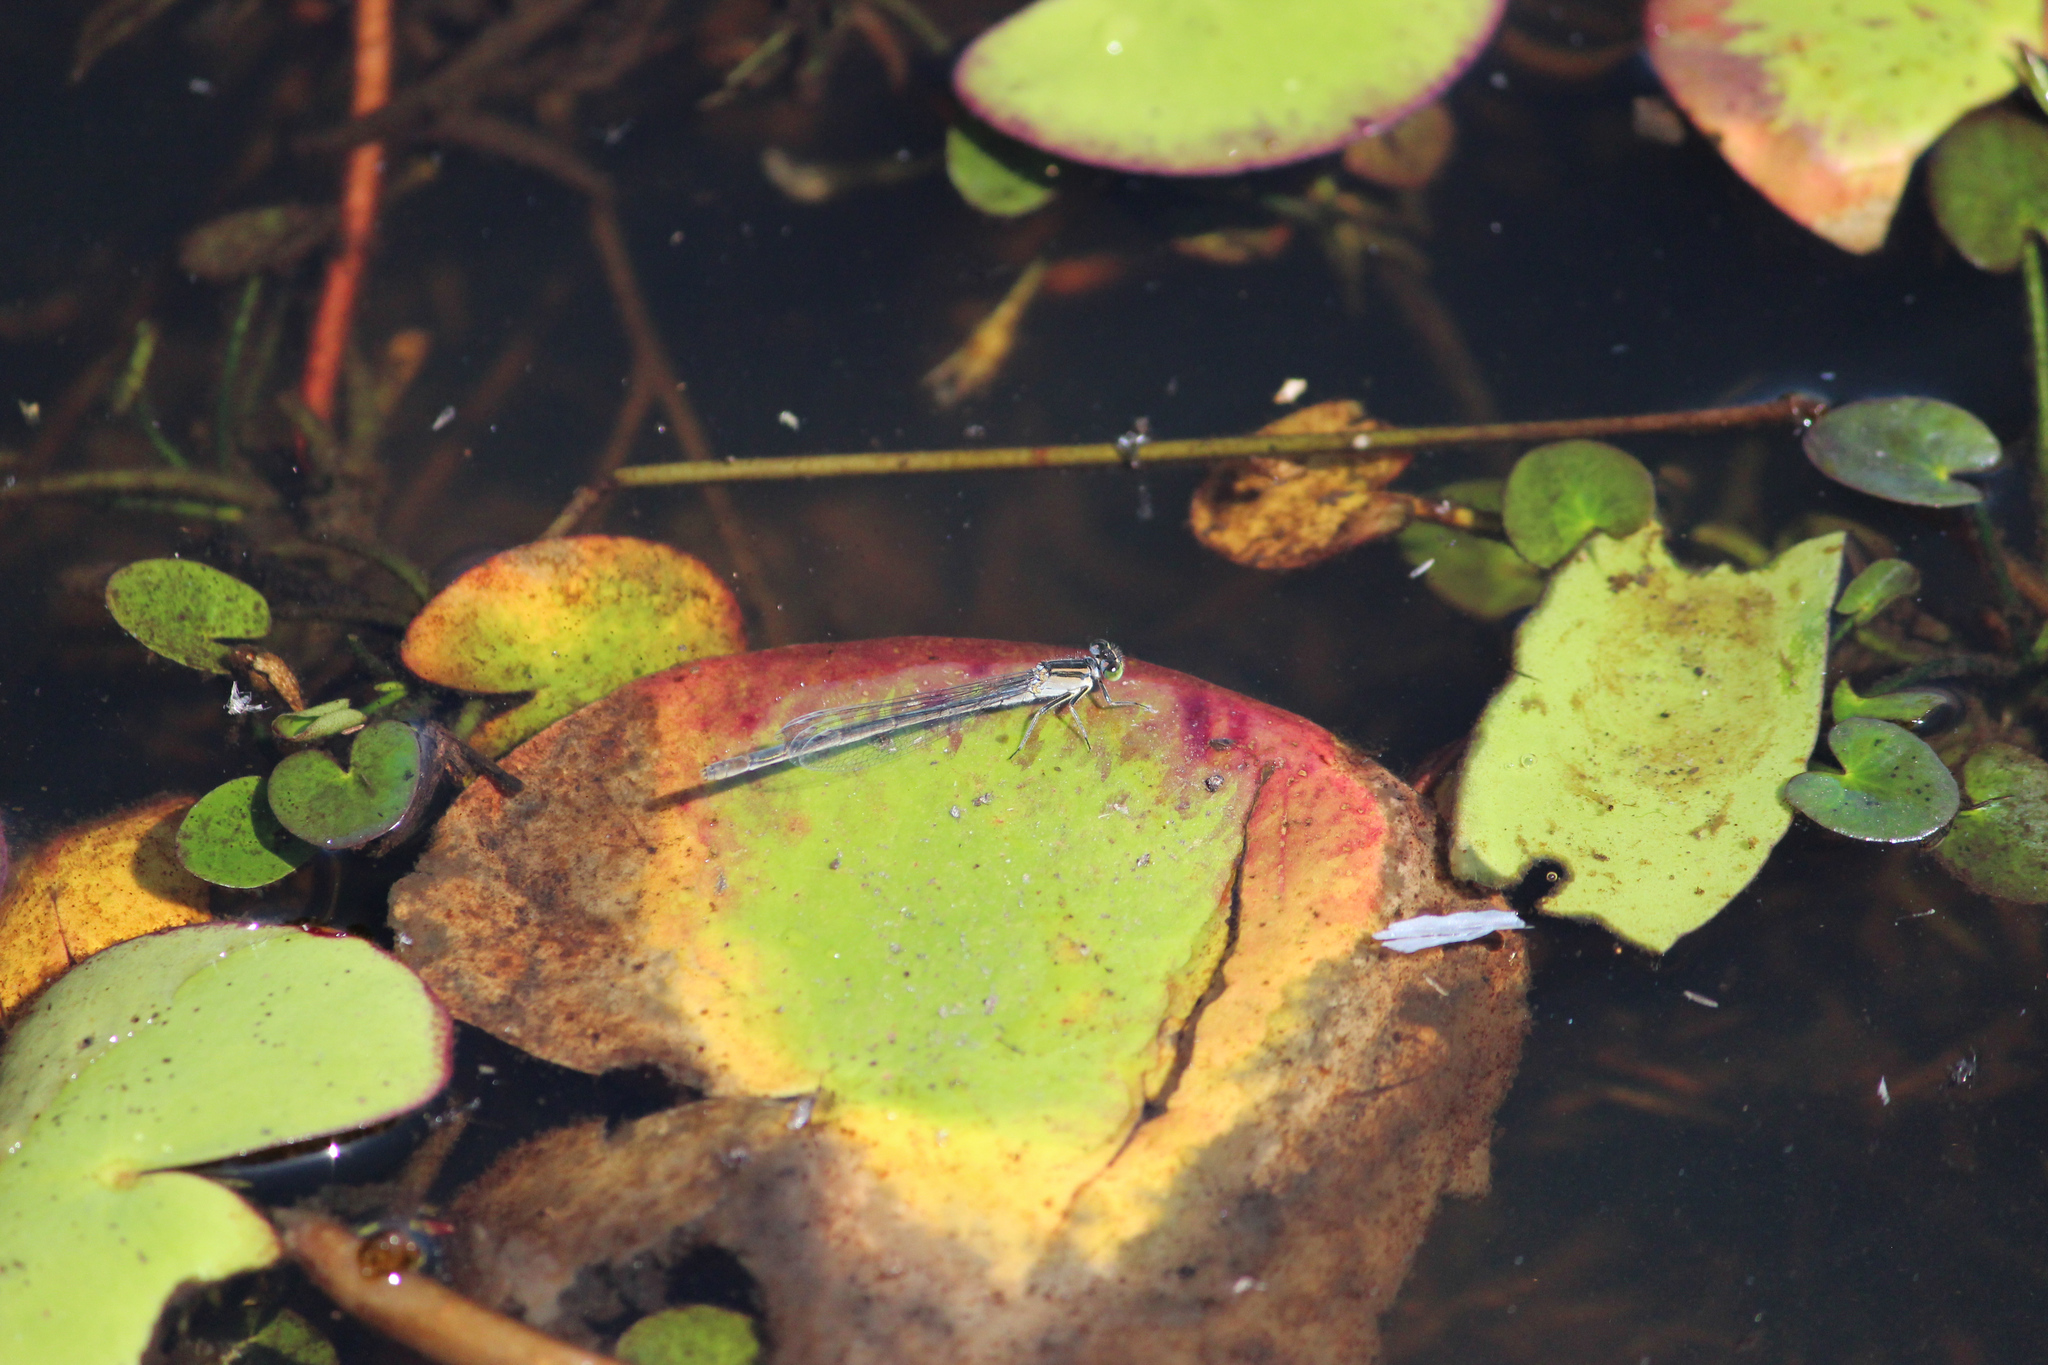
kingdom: Animalia
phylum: Arthropoda
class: Insecta
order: Odonata
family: Coenagrionidae
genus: Ischnura
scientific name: Ischnura heterosticta
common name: Common bluetail
